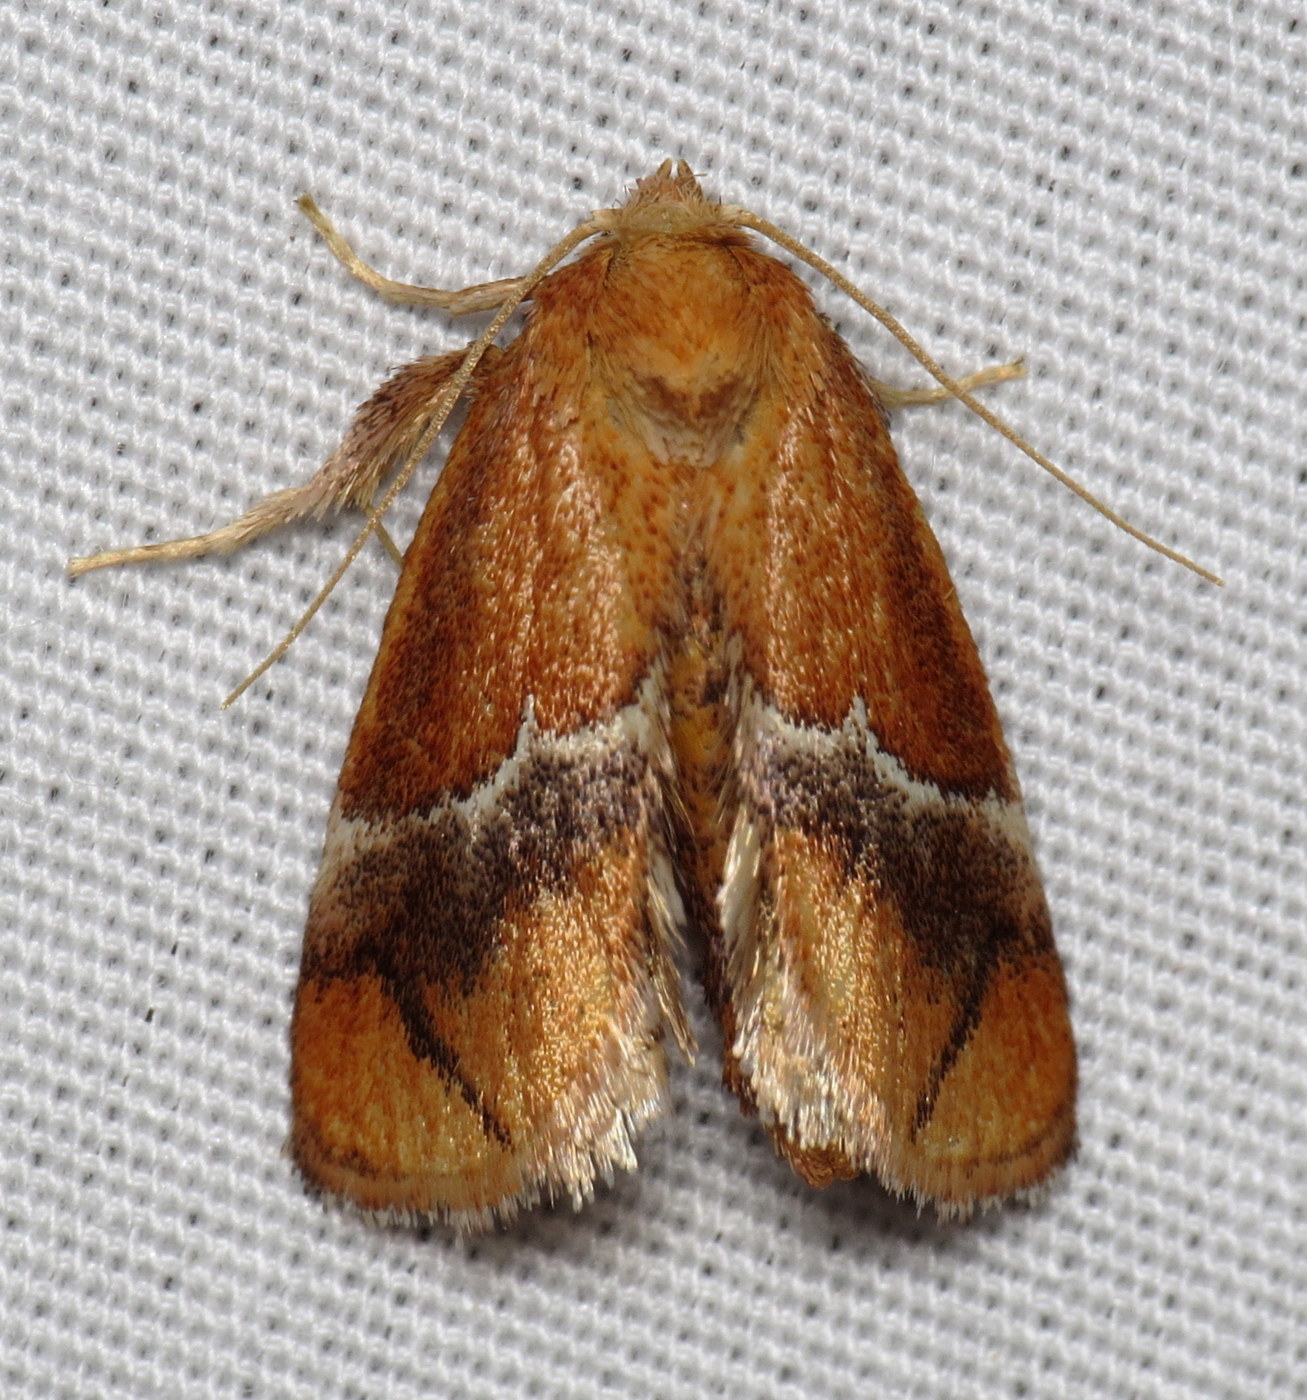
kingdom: Animalia
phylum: Arthropoda
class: Insecta
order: Lepidoptera
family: Limacodidae
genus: Lithacodes
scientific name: Lithacodes fasciola
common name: Yellow-shouldered slug moth
